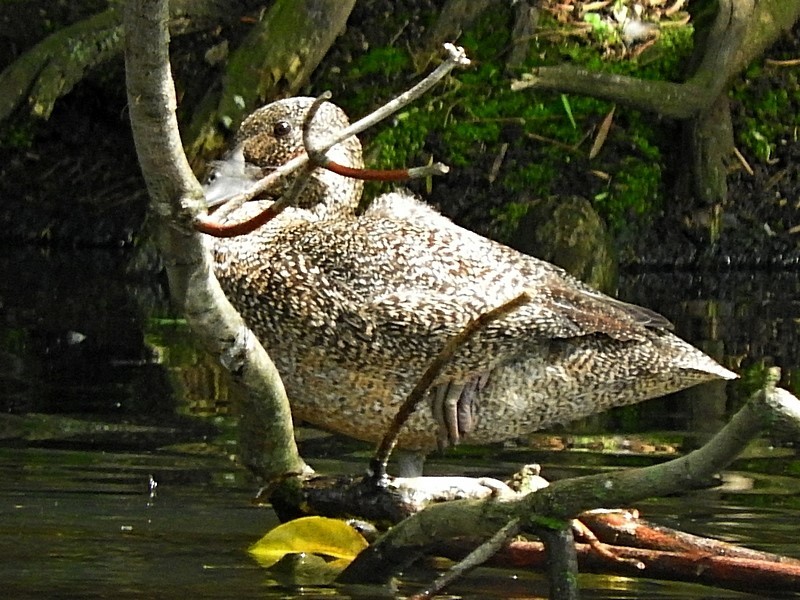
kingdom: Animalia
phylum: Chordata
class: Aves
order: Anseriformes
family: Anatidae
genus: Stictonetta
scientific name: Stictonetta naevosa
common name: Freckled duck
